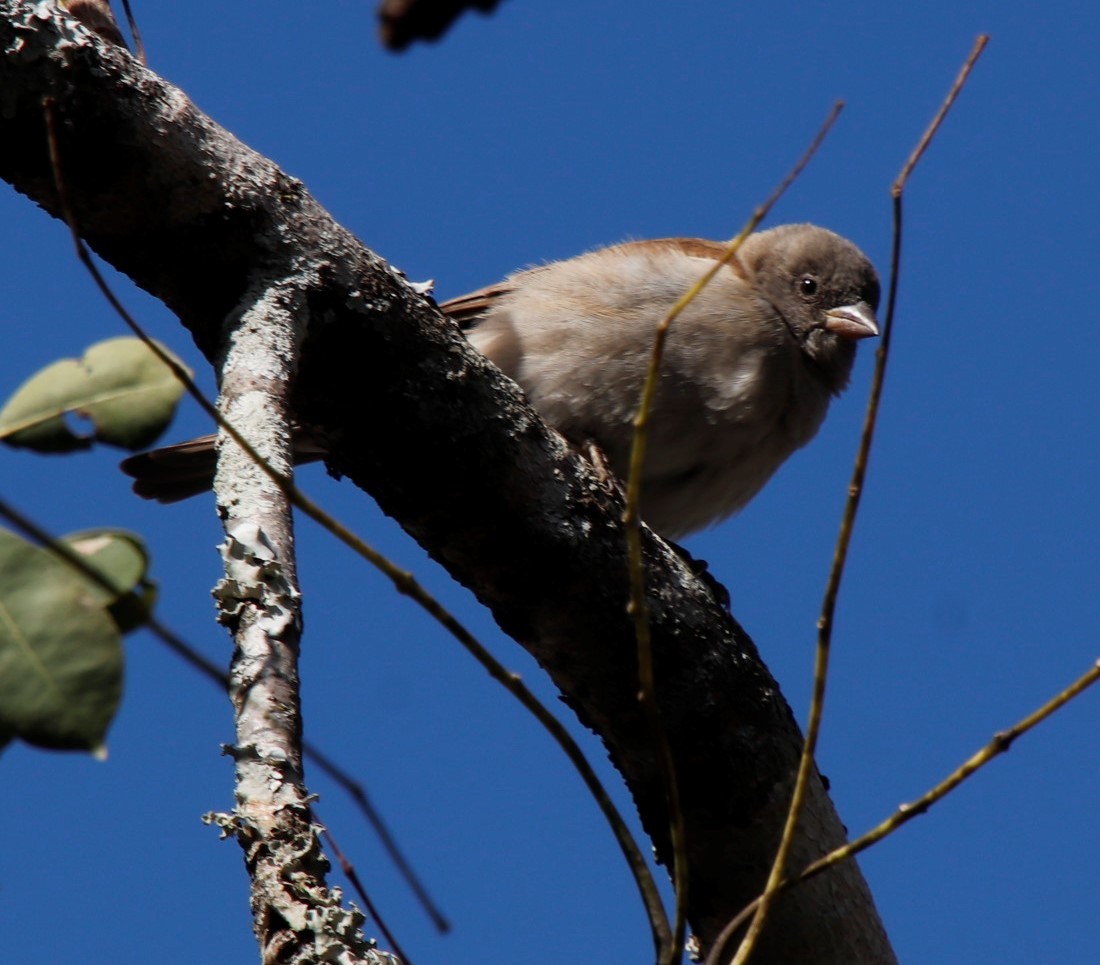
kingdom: Animalia
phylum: Chordata
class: Aves
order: Passeriformes
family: Passeridae
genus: Passer
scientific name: Passer diffusus
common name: Southern grey-headed sparrow
